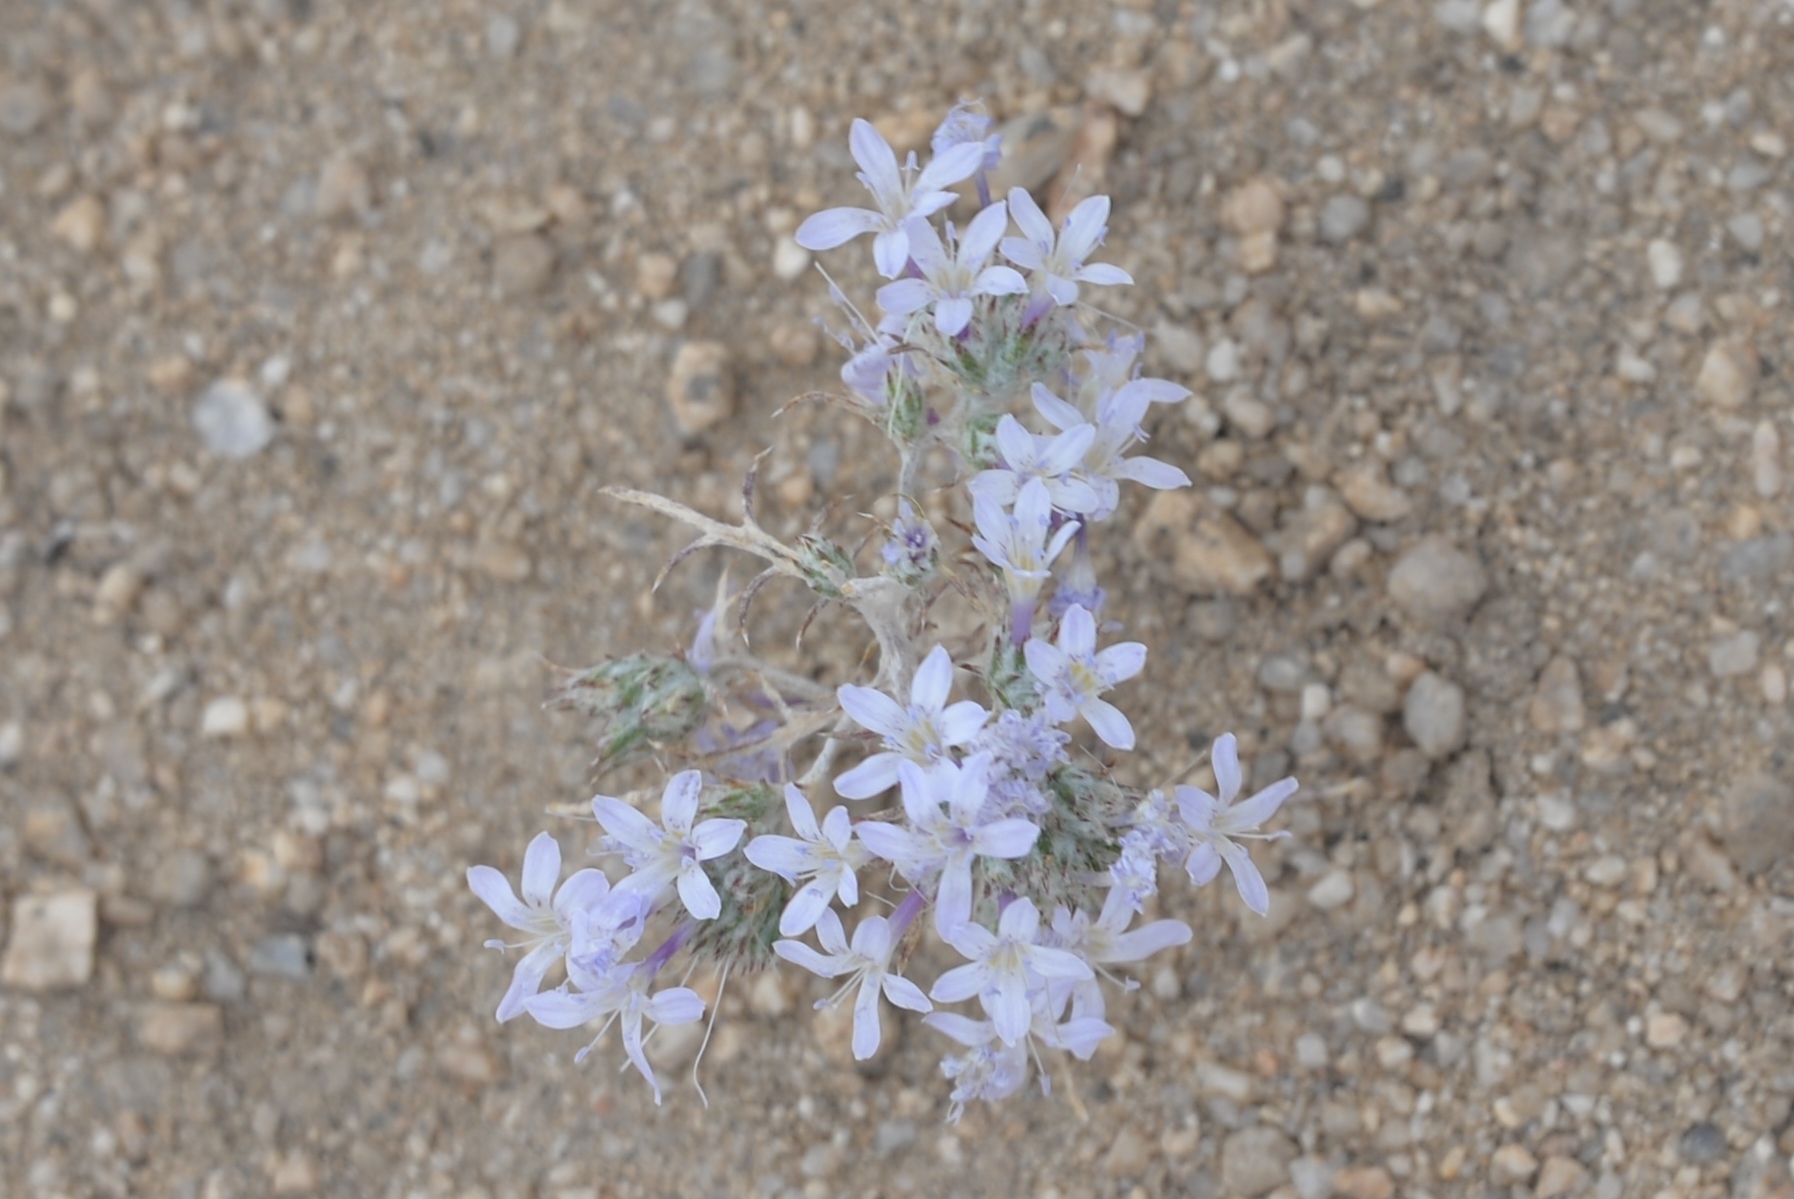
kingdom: Plantae
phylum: Tracheophyta
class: Magnoliopsida
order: Ericales
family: Polemoniaceae
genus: Eriastrum
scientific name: Eriastrum eremicum
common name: Desert eriastrum
